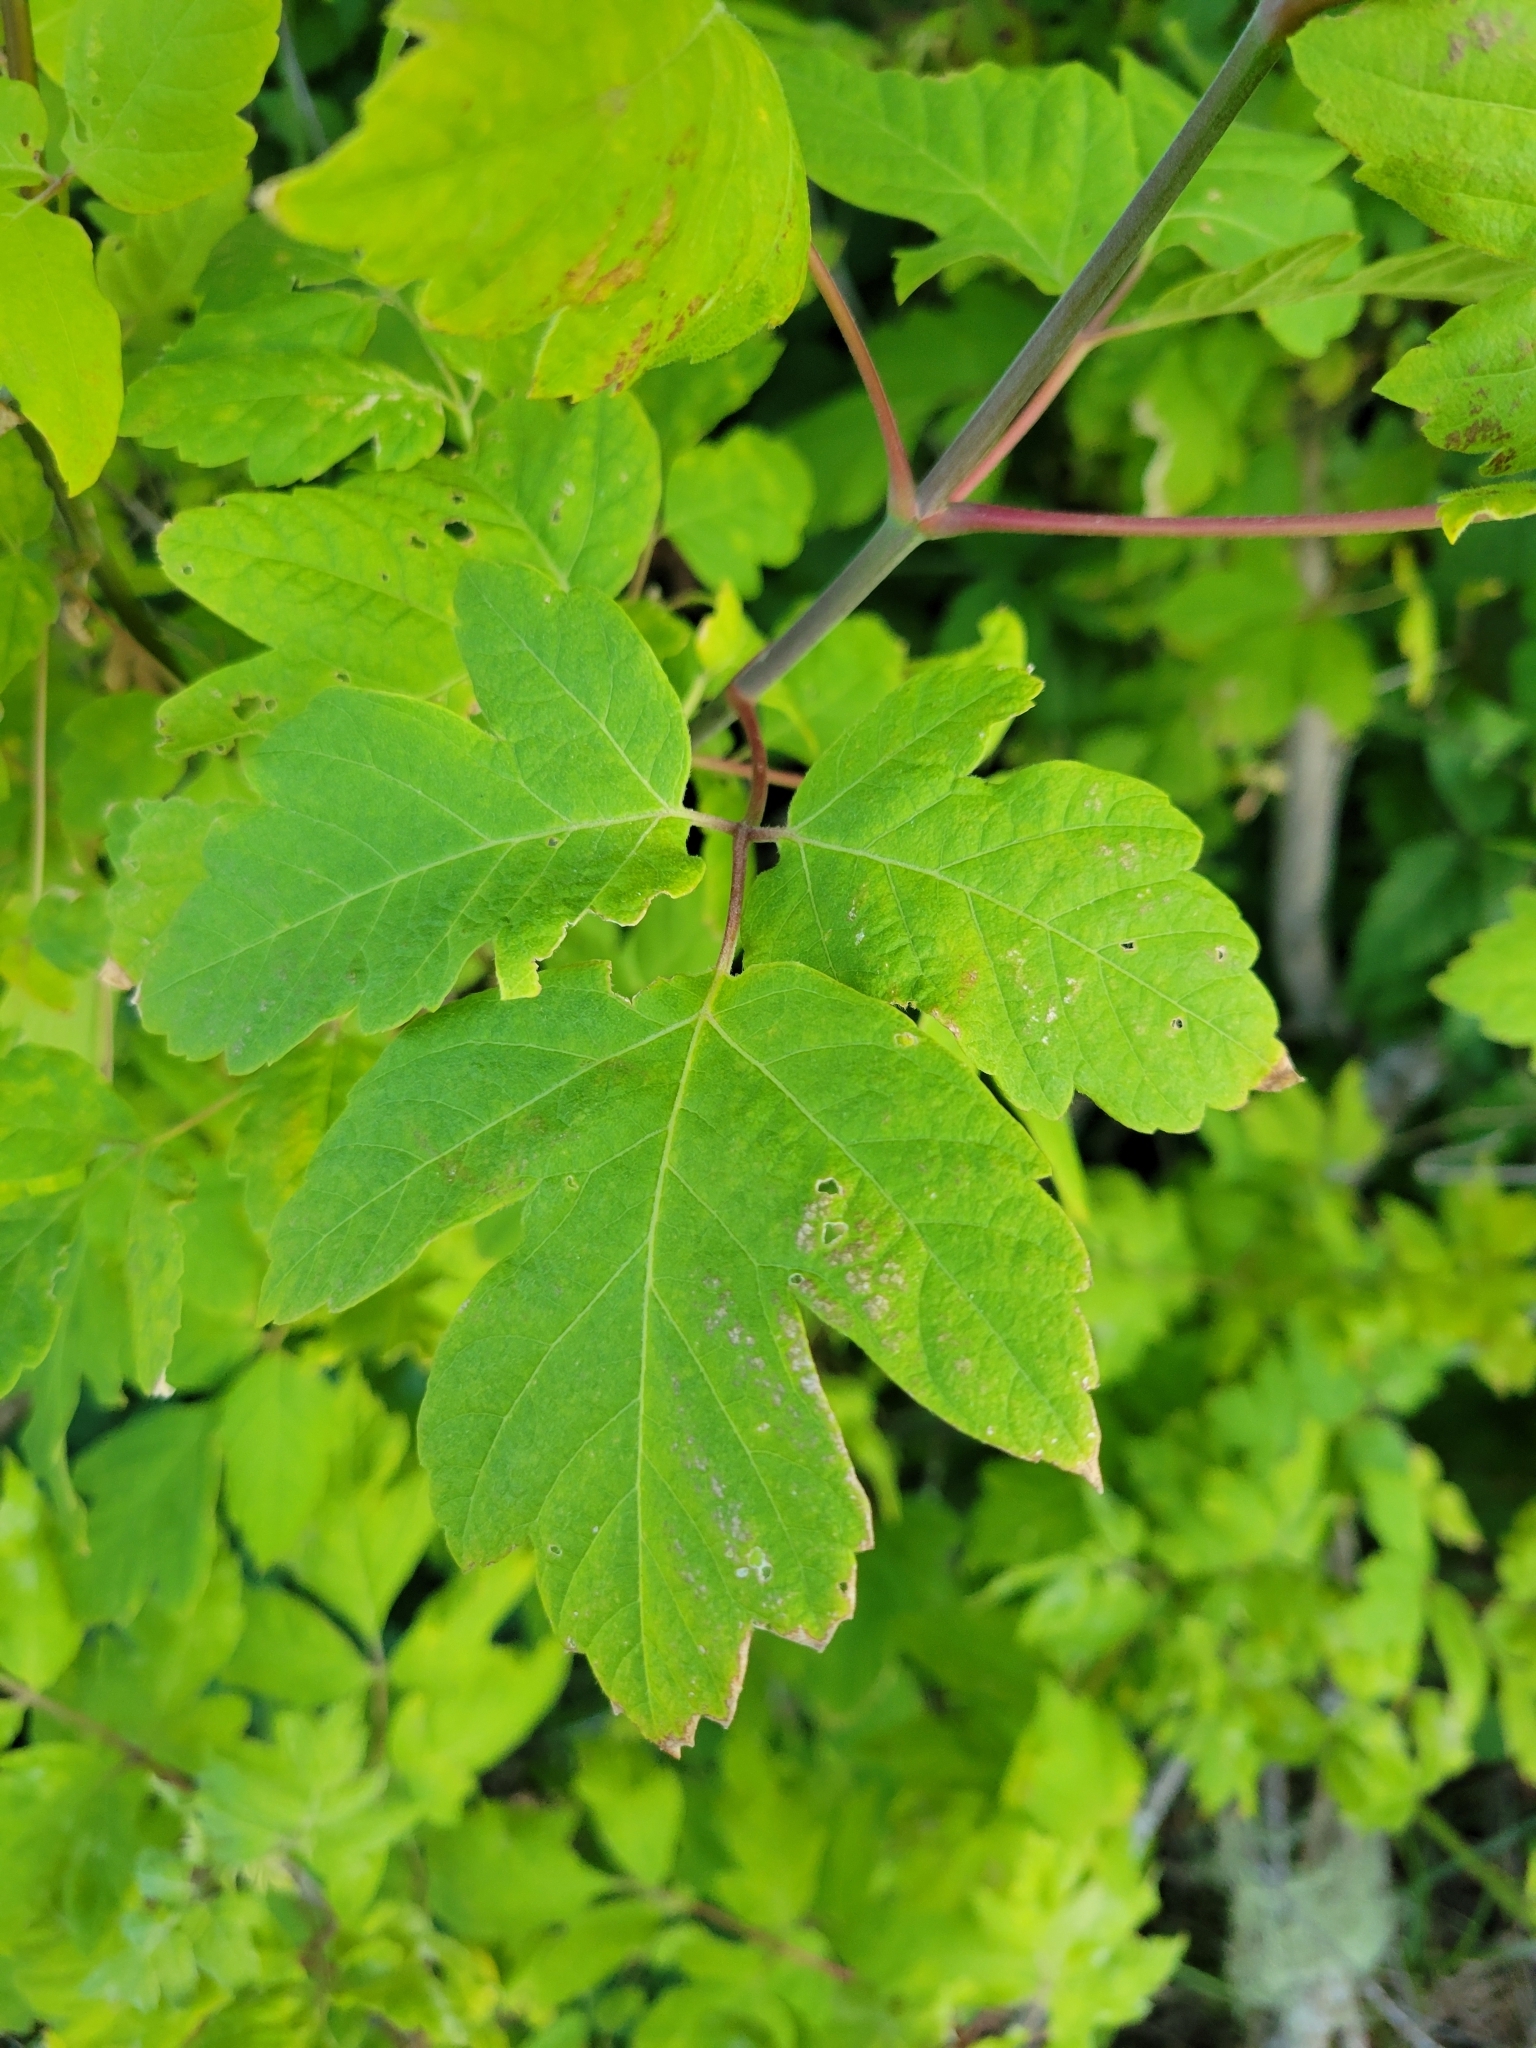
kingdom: Plantae
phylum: Tracheophyta
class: Magnoliopsida
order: Sapindales
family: Sapindaceae
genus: Acer
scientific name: Acer negundo
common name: Ashleaf maple
